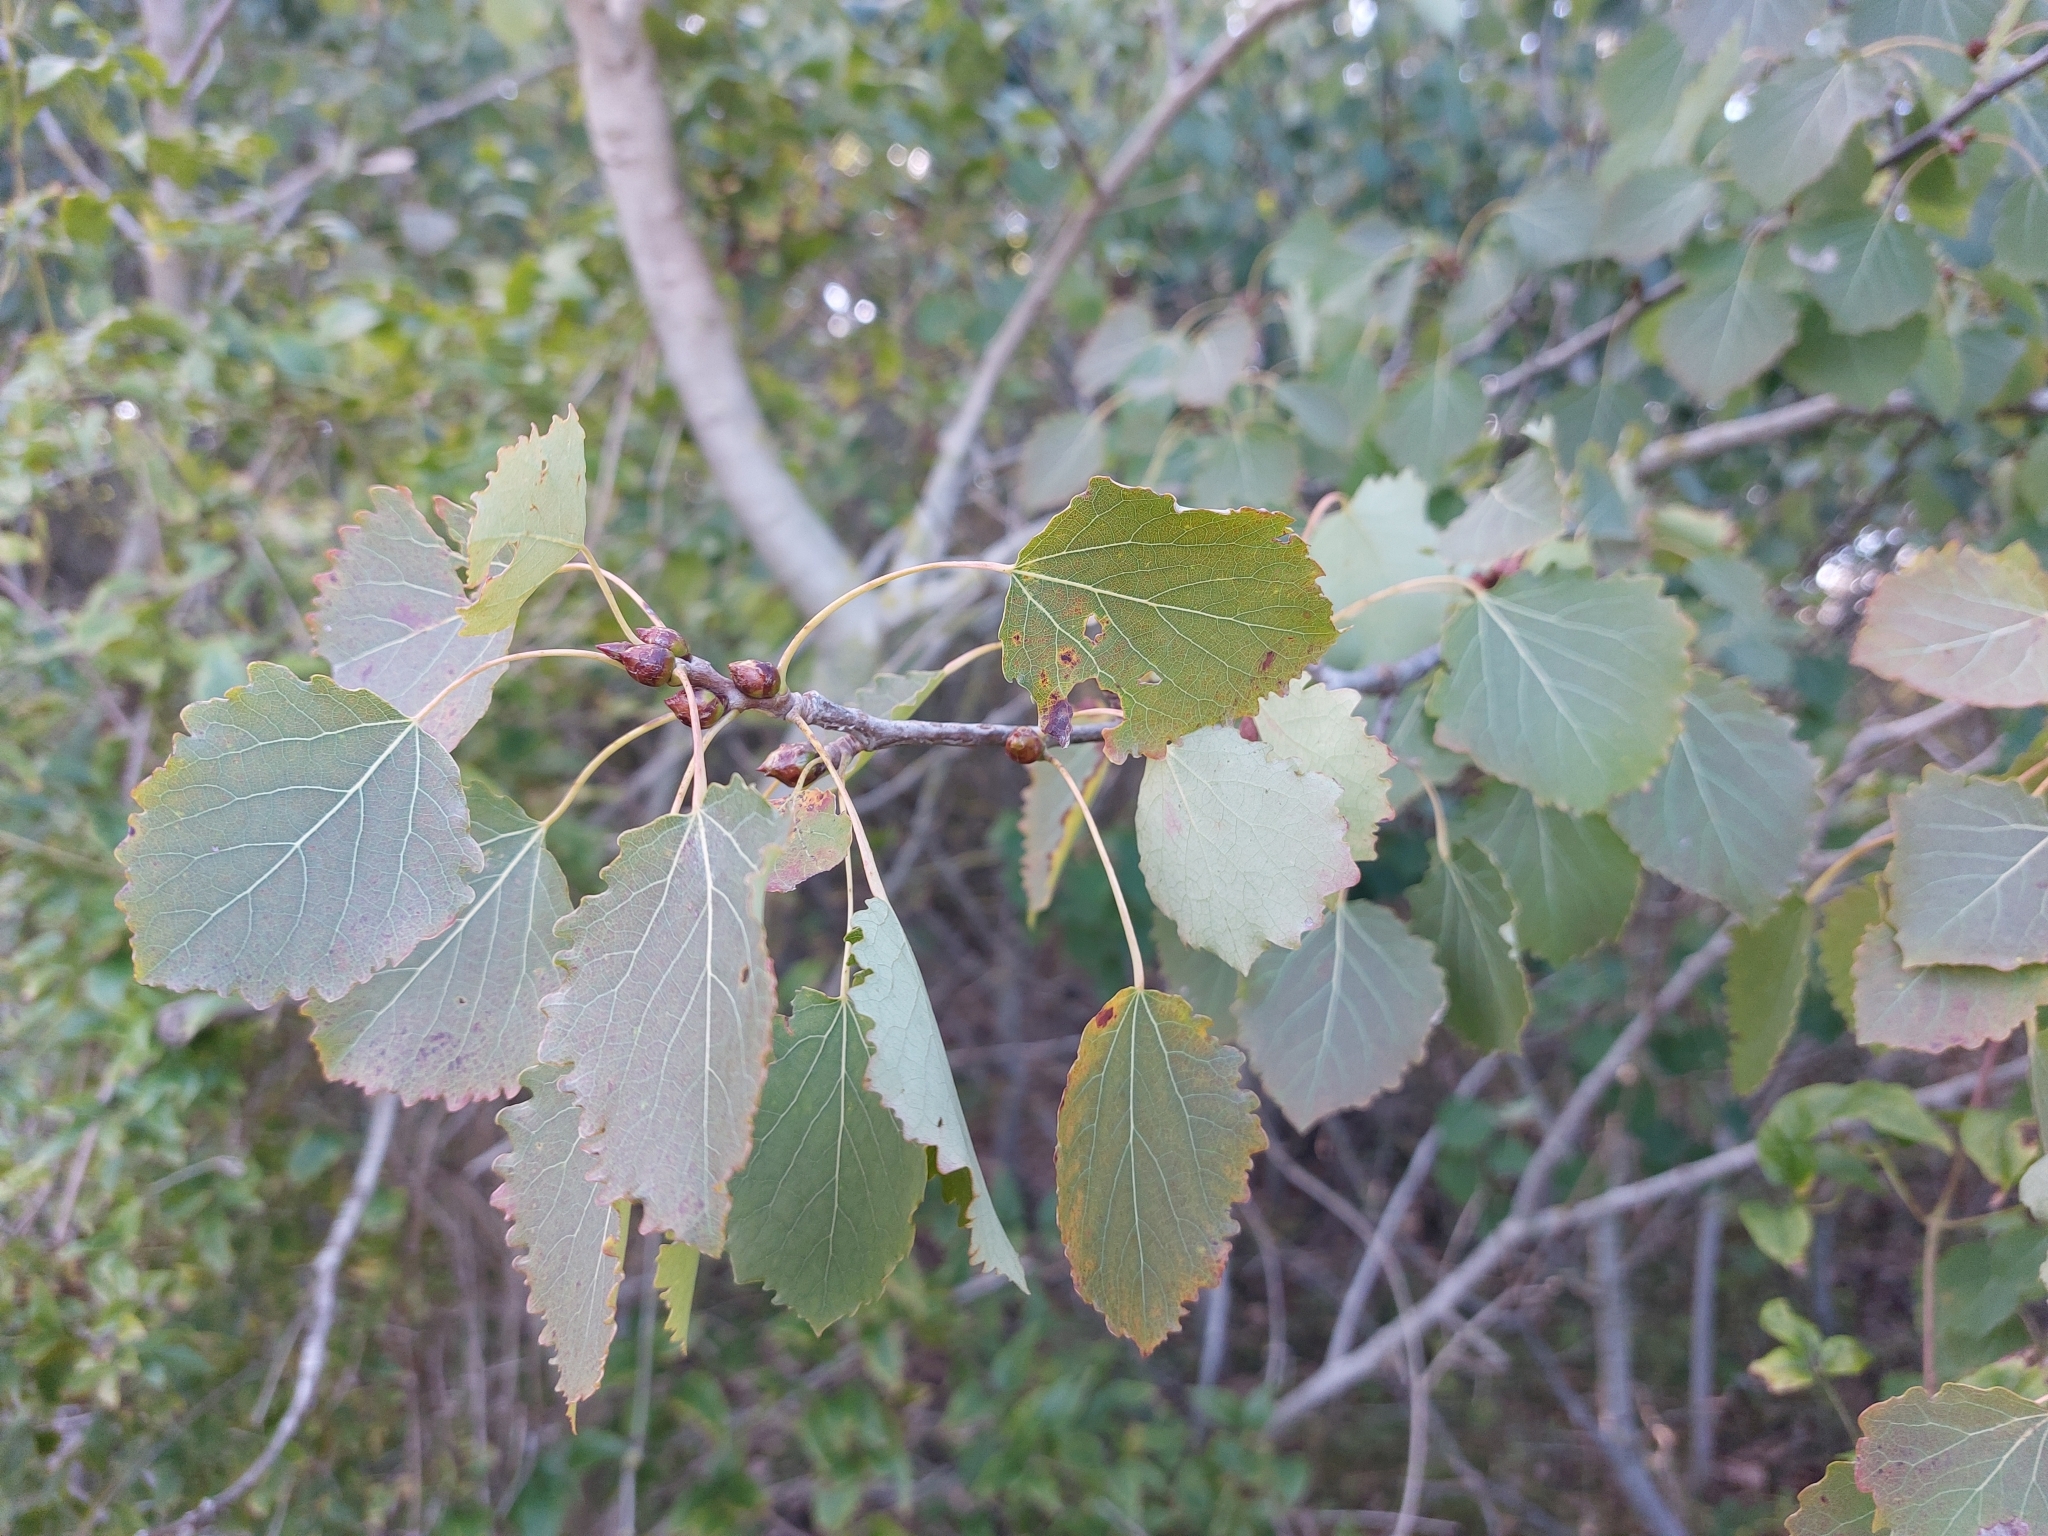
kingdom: Plantae
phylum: Tracheophyta
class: Magnoliopsida
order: Malpighiales
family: Salicaceae
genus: Populus
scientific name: Populus tremula
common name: European aspen
